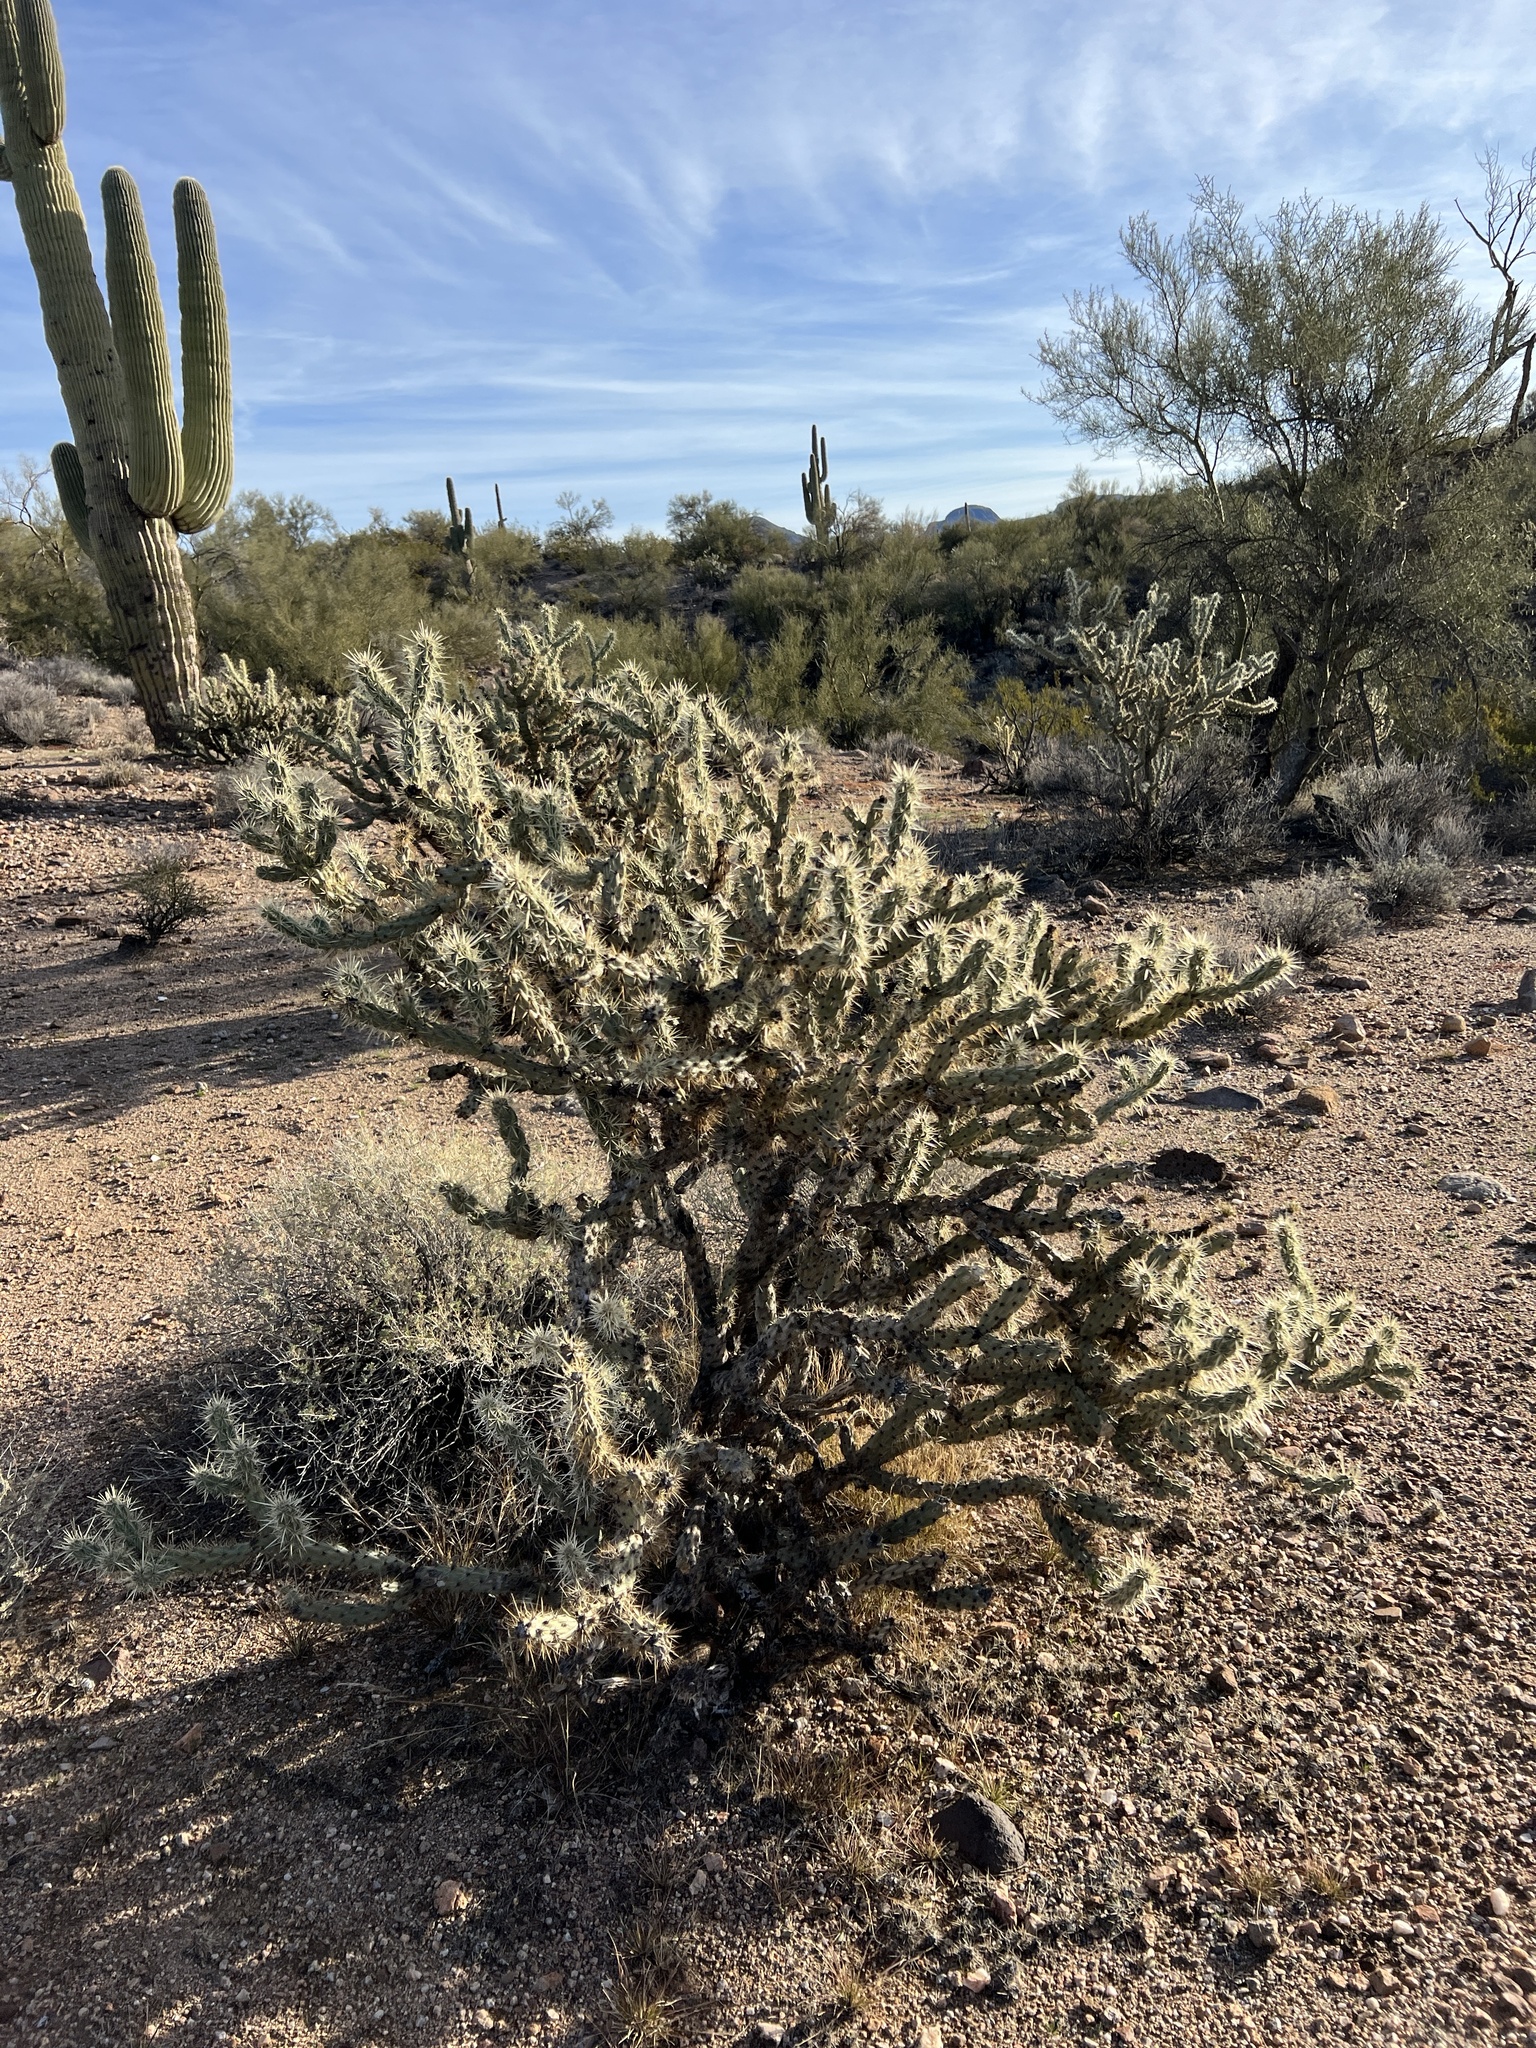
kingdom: Plantae
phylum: Tracheophyta
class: Magnoliopsida
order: Caryophyllales
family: Cactaceae
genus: Cylindropuntia
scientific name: Cylindropuntia acanthocarpa
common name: Buckhorn cholla
